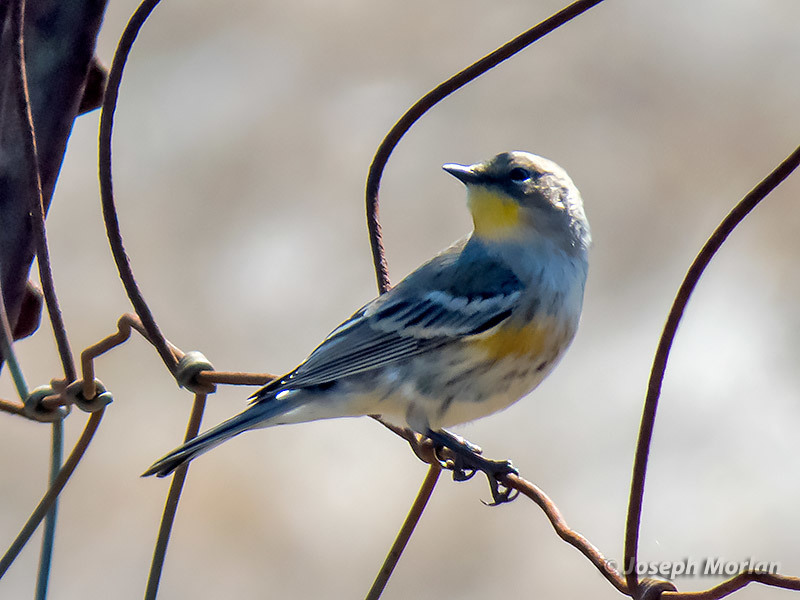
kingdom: Animalia
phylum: Chordata
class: Aves
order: Passeriformes
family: Parulidae
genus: Setophaga
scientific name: Setophaga coronata
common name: Myrtle warbler
